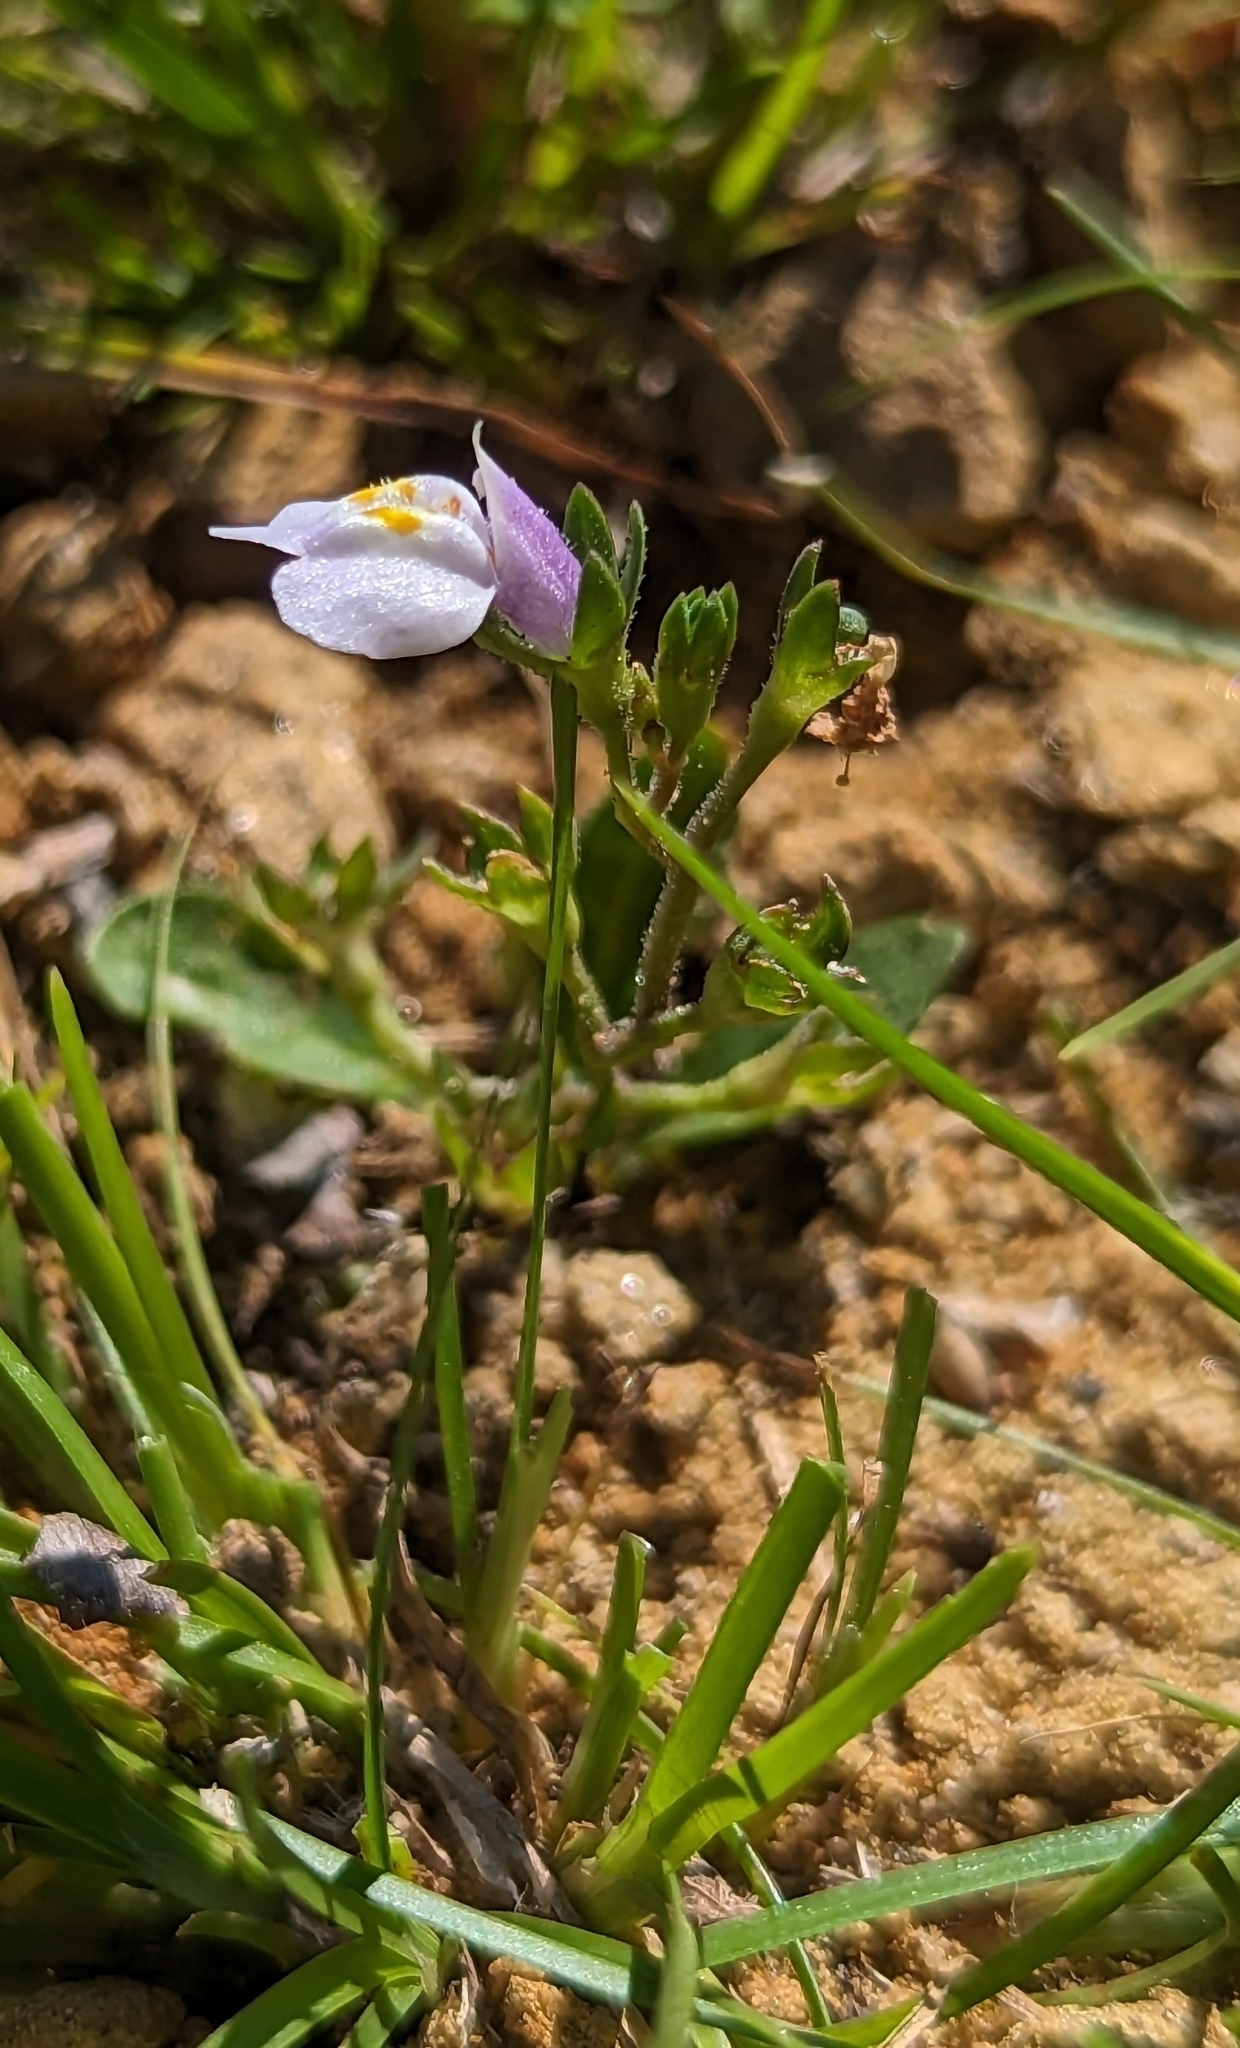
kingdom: Plantae
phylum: Tracheophyta
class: Magnoliopsida
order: Lamiales
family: Mazaceae
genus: Mazus
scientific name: Mazus pumilus
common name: Japanese mazus
